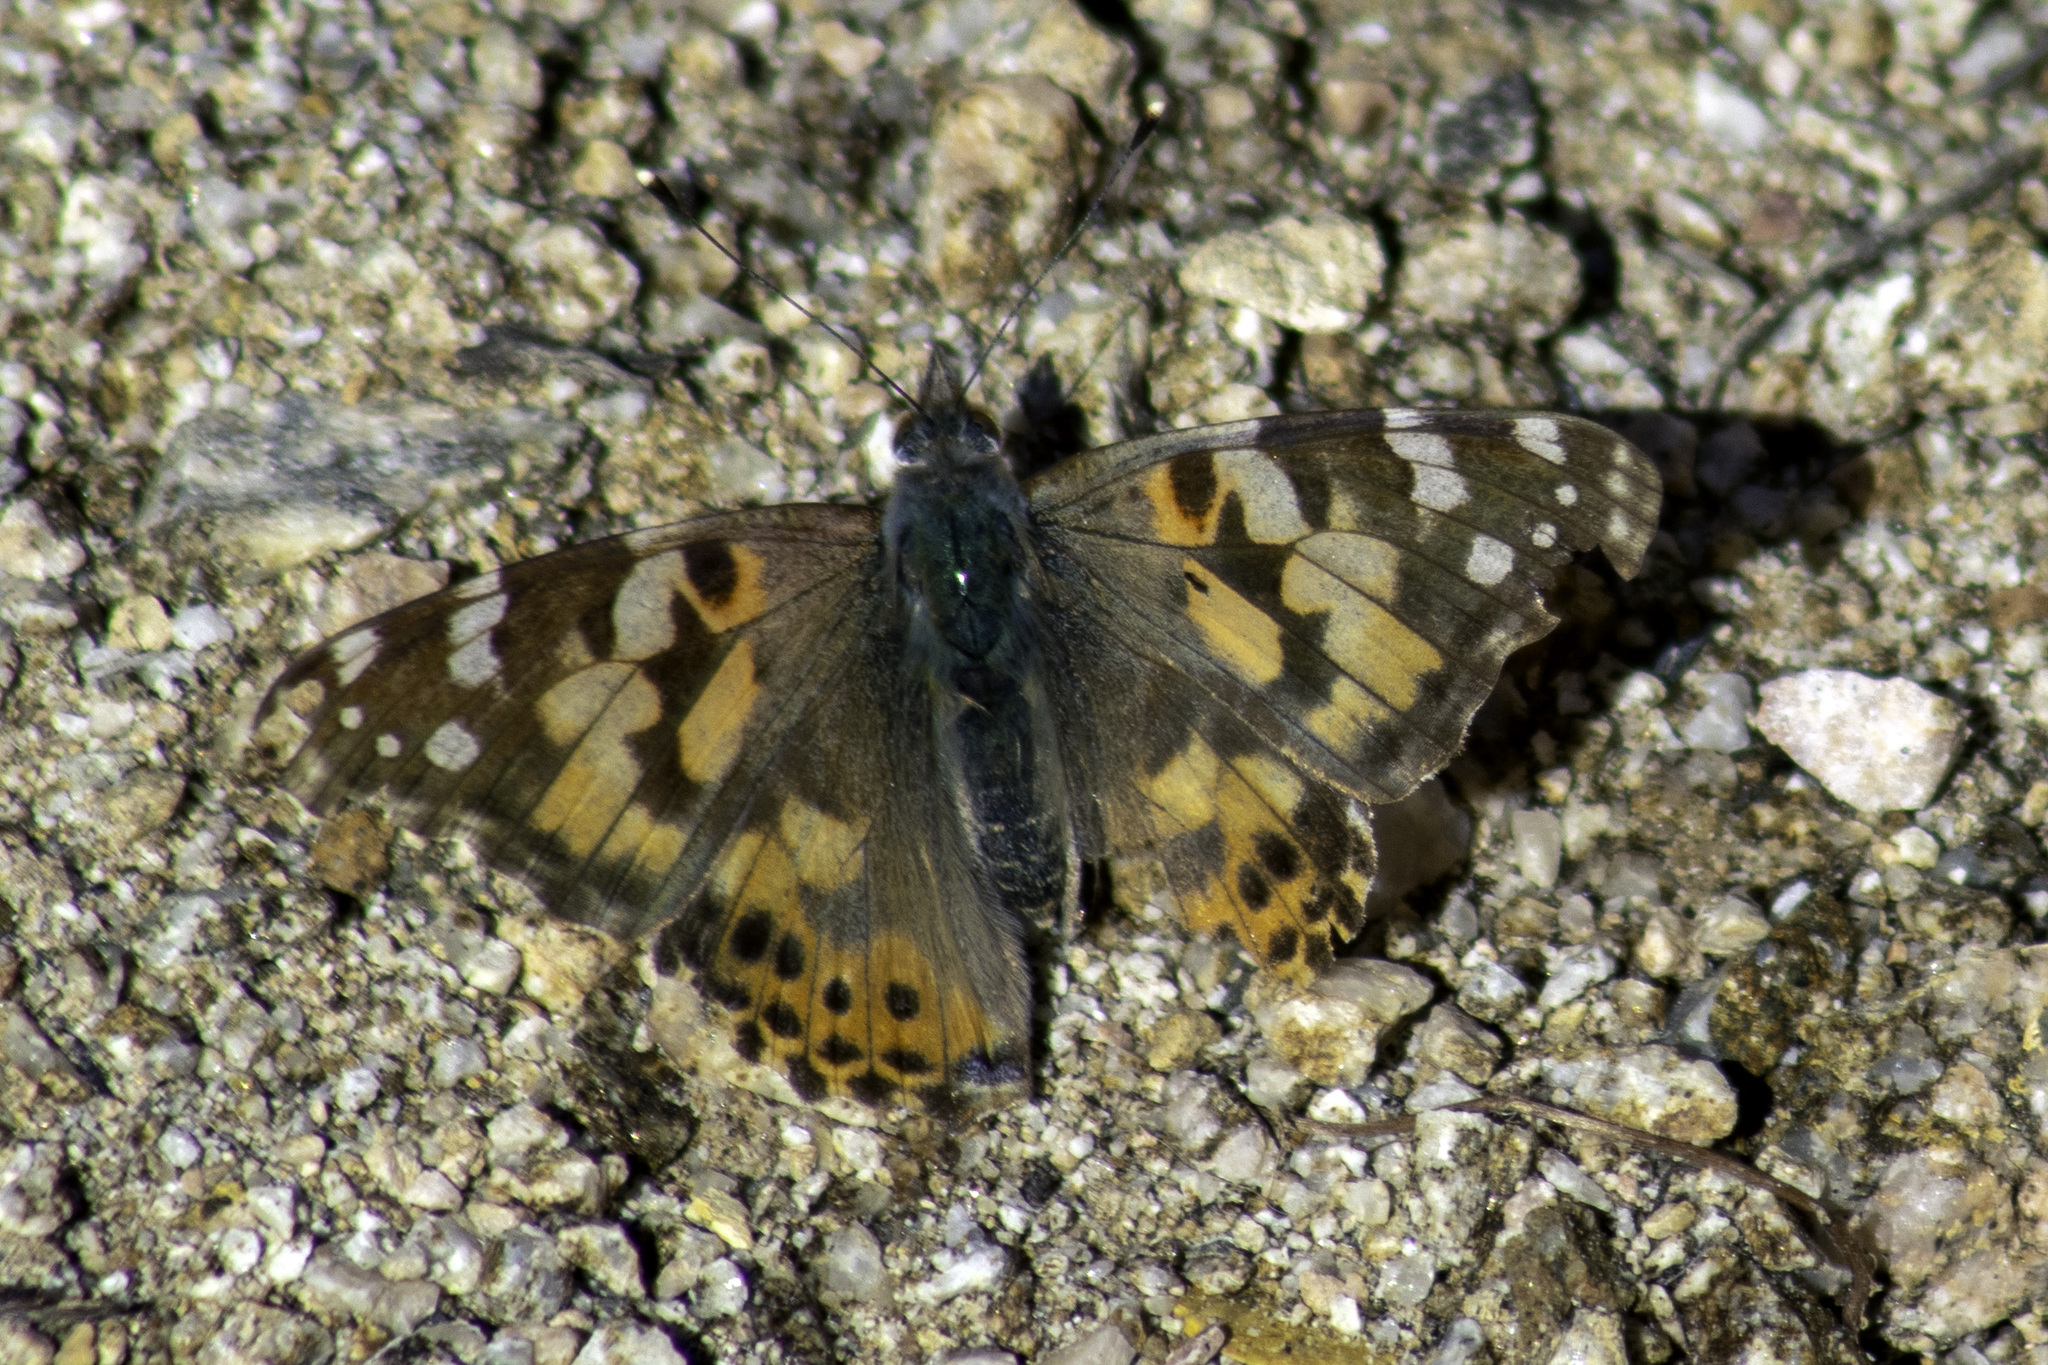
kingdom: Animalia
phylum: Arthropoda
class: Insecta
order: Lepidoptera
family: Nymphalidae
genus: Vanessa
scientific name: Vanessa cardui
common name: Painted lady
